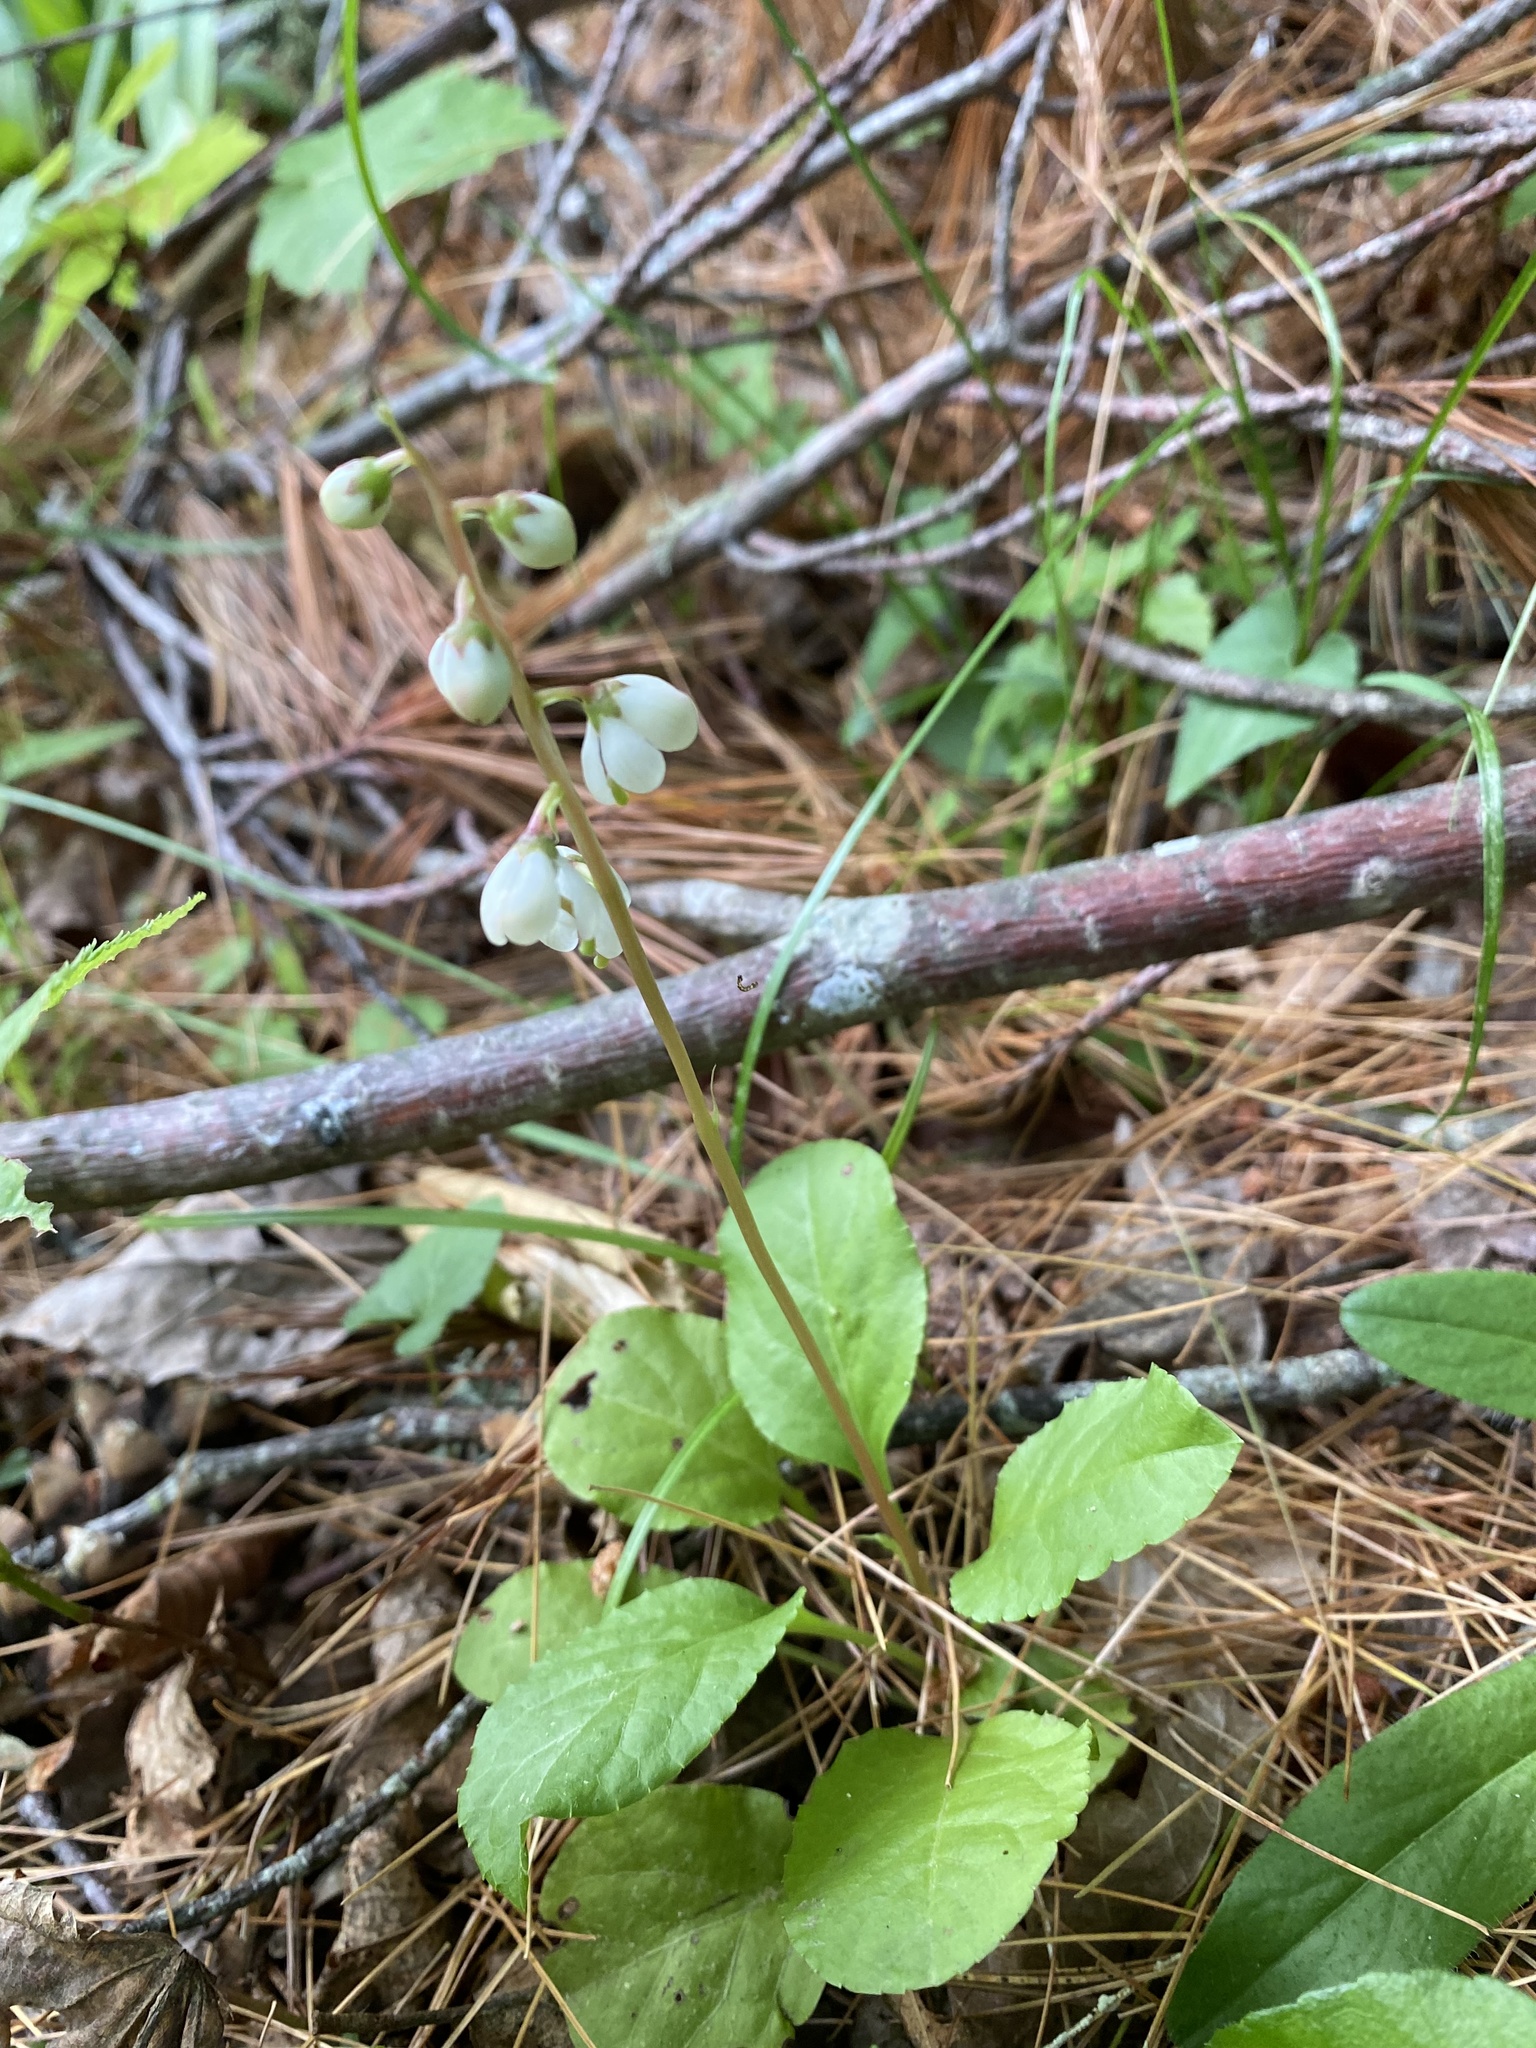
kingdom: Plantae
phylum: Tracheophyta
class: Magnoliopsida
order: Ericales
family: Ericaceae
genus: Pyrola
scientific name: Pyrola elliptica
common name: Shinleaf
